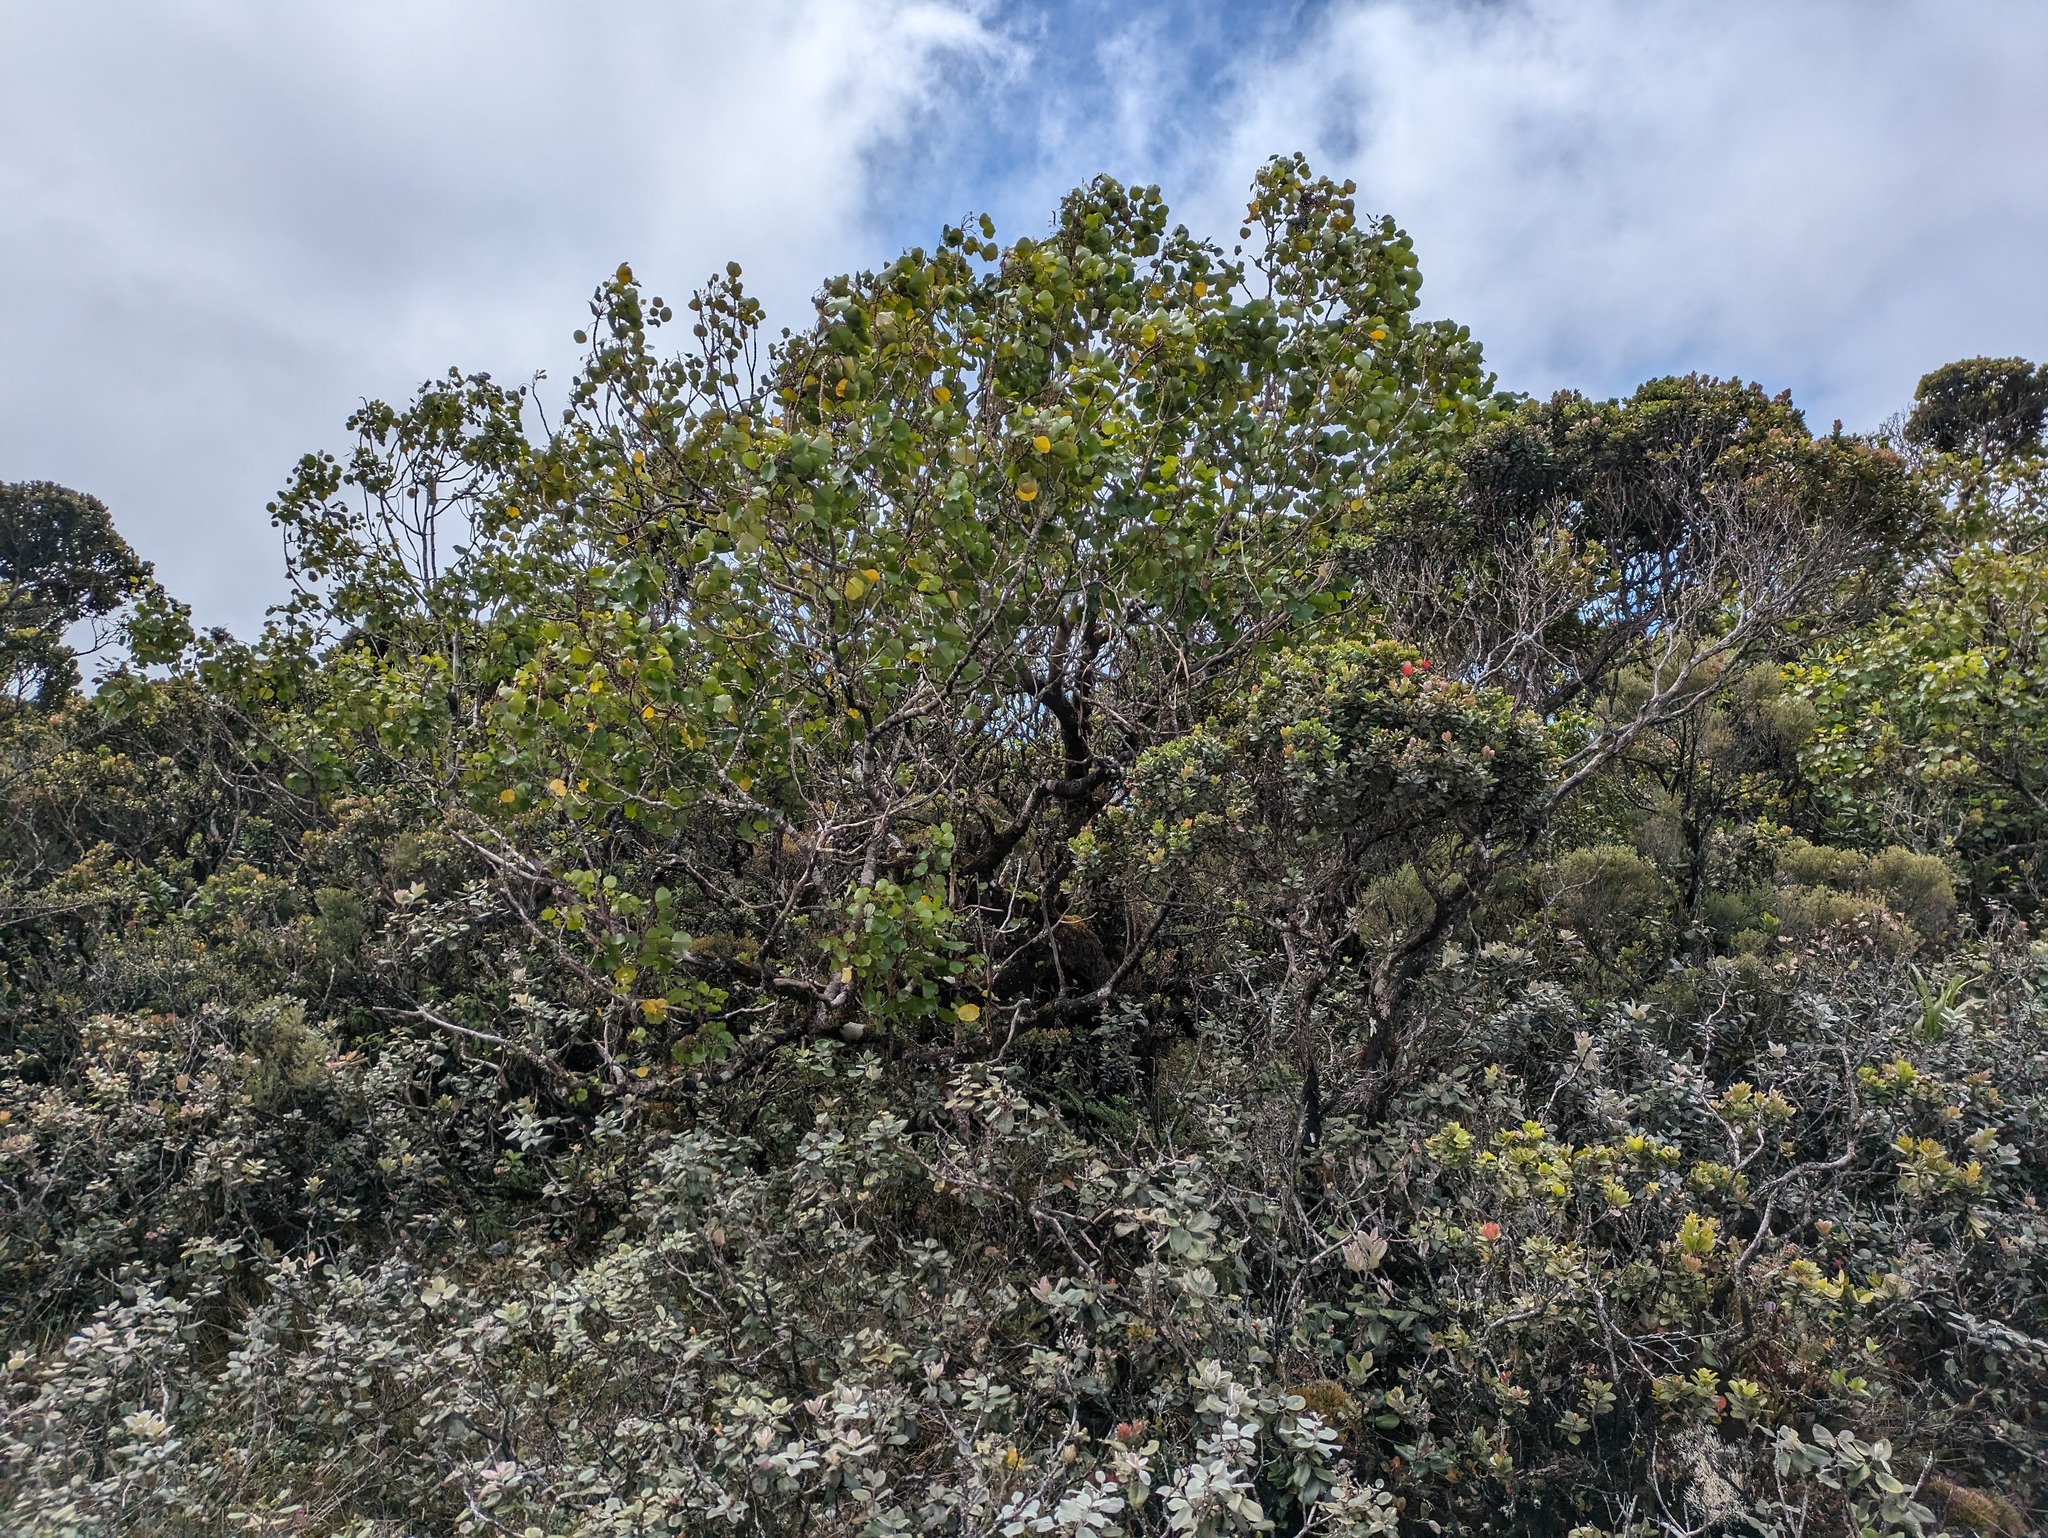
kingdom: Plantae
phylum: Tracheophyta
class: Magnoliopsida
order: Apiales
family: Araliaceae
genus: Cheirodendron
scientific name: Cheirodendron platyphyllum
